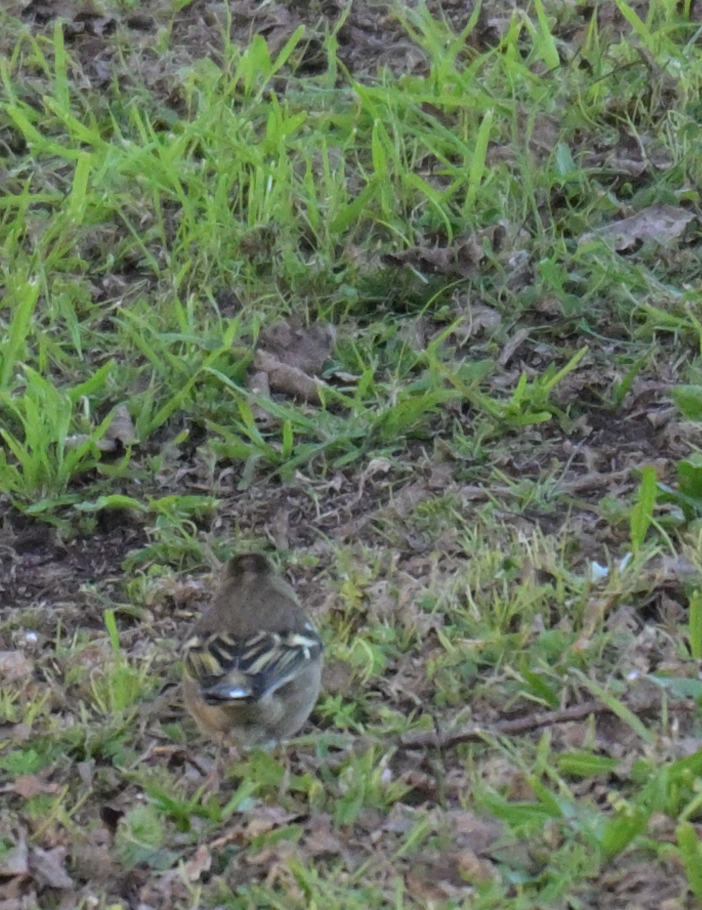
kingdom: Animalia
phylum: Chordata
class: Aves
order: Passeriformes
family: Fringillidae
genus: Fringilla
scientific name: Fringilla coelebs
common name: Common chaffinch
